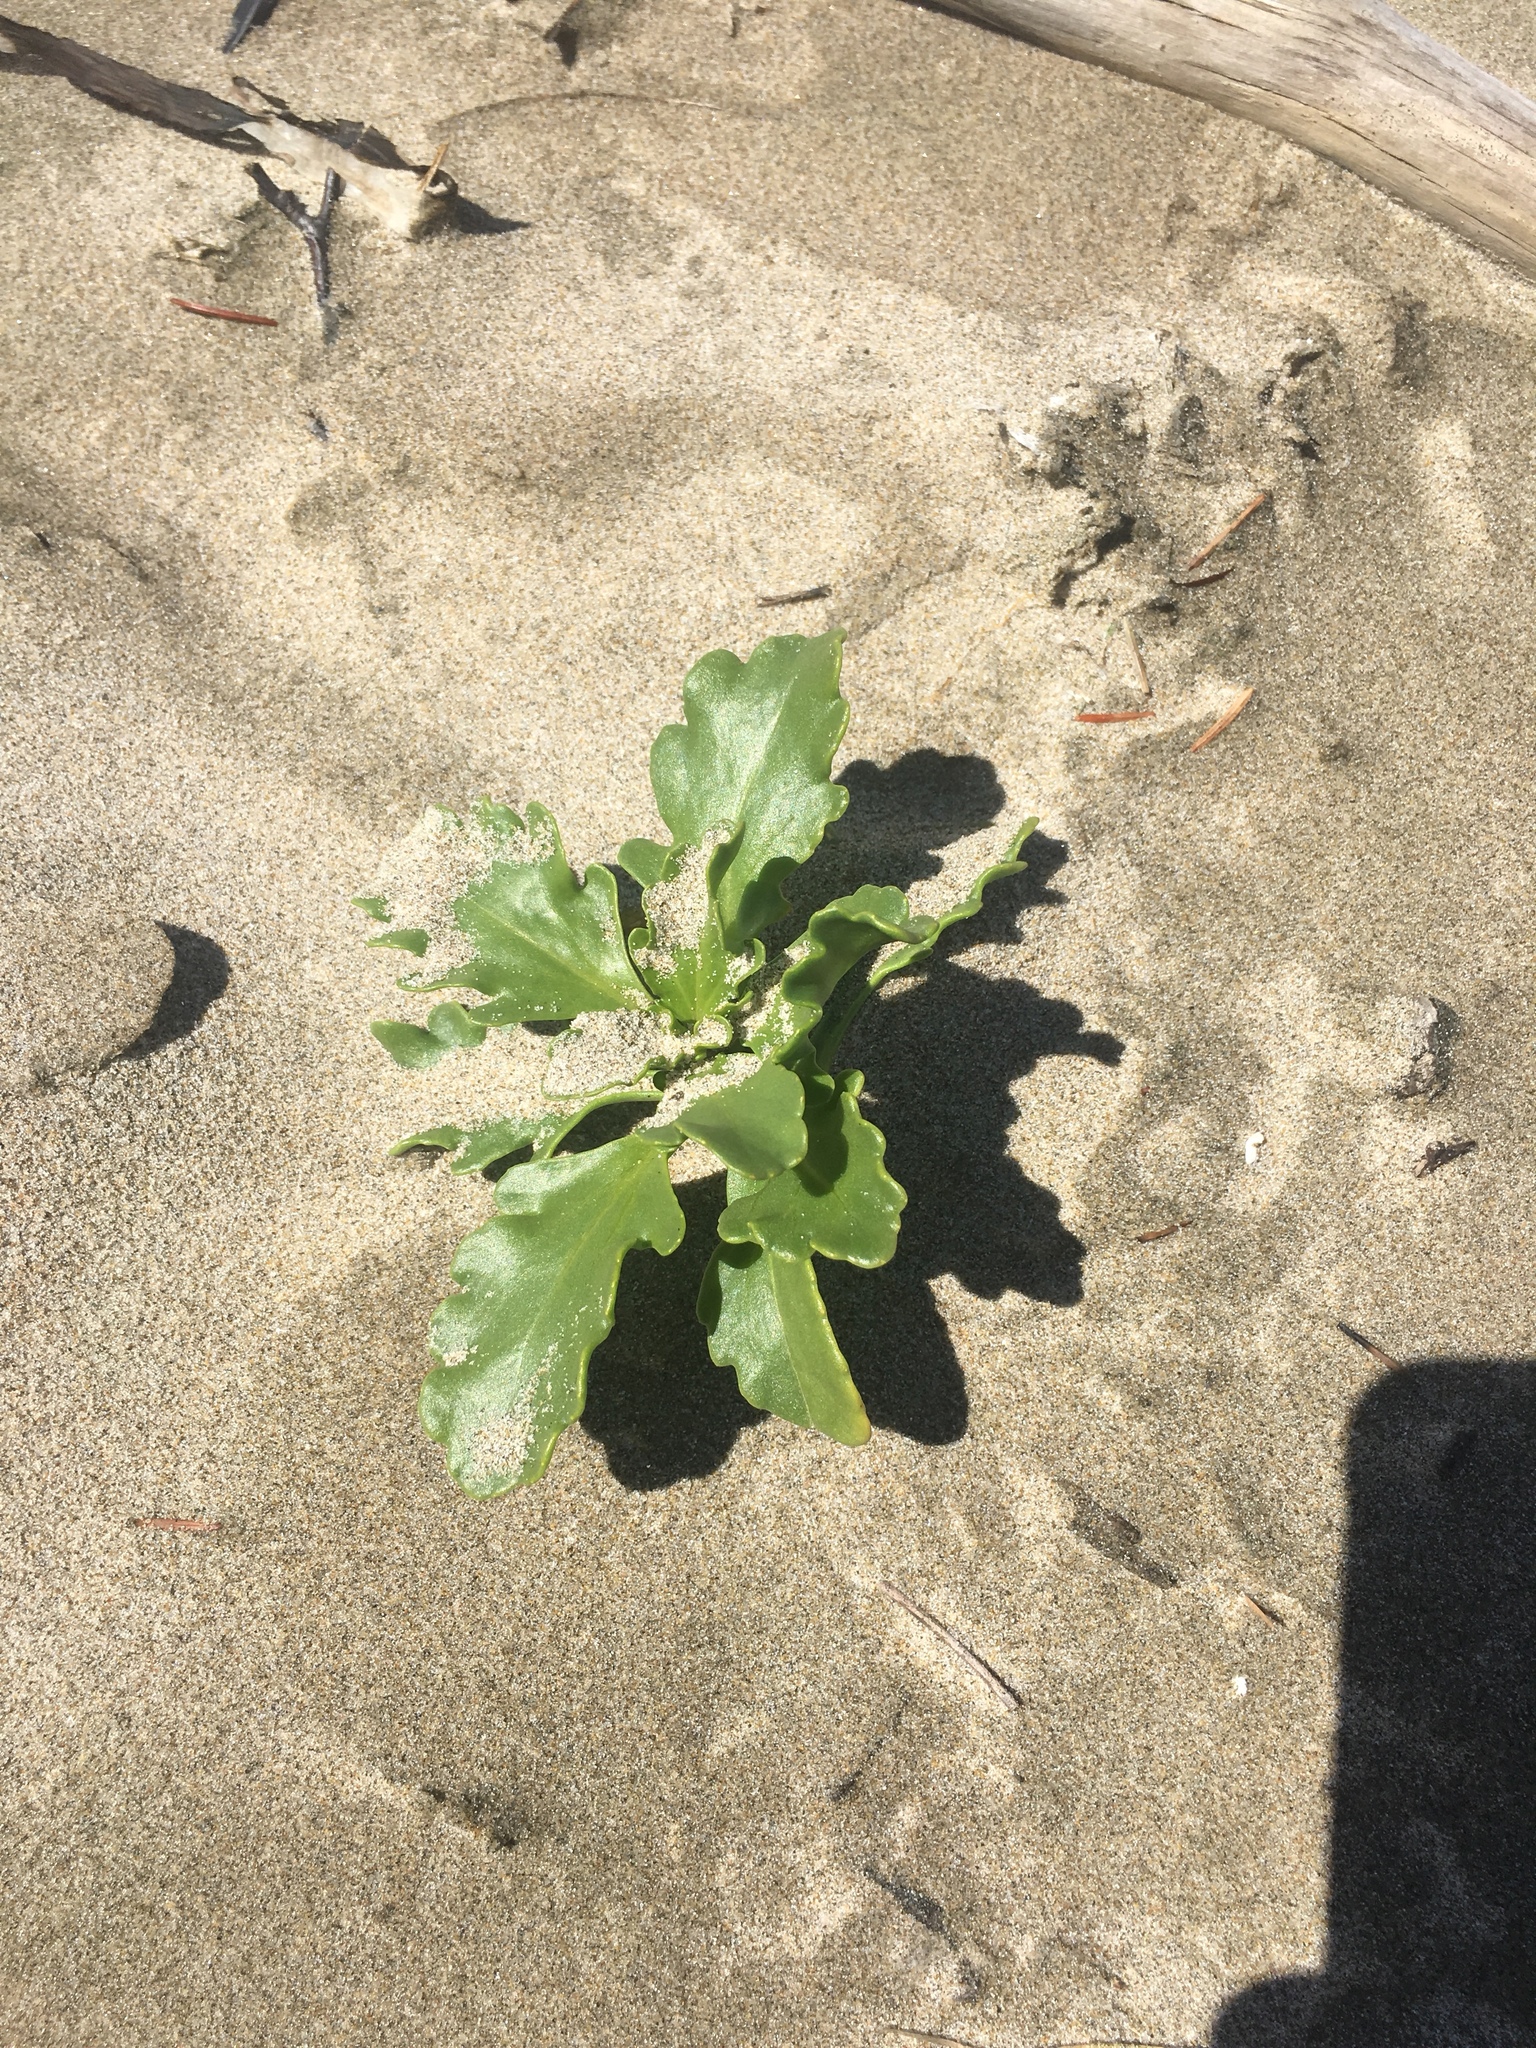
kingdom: Plantae
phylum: Tracheophyta
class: Magnoliopsida
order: Brassicales
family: Brassicaceae
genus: Cakile
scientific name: Cakile edentula
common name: American sea rocket
